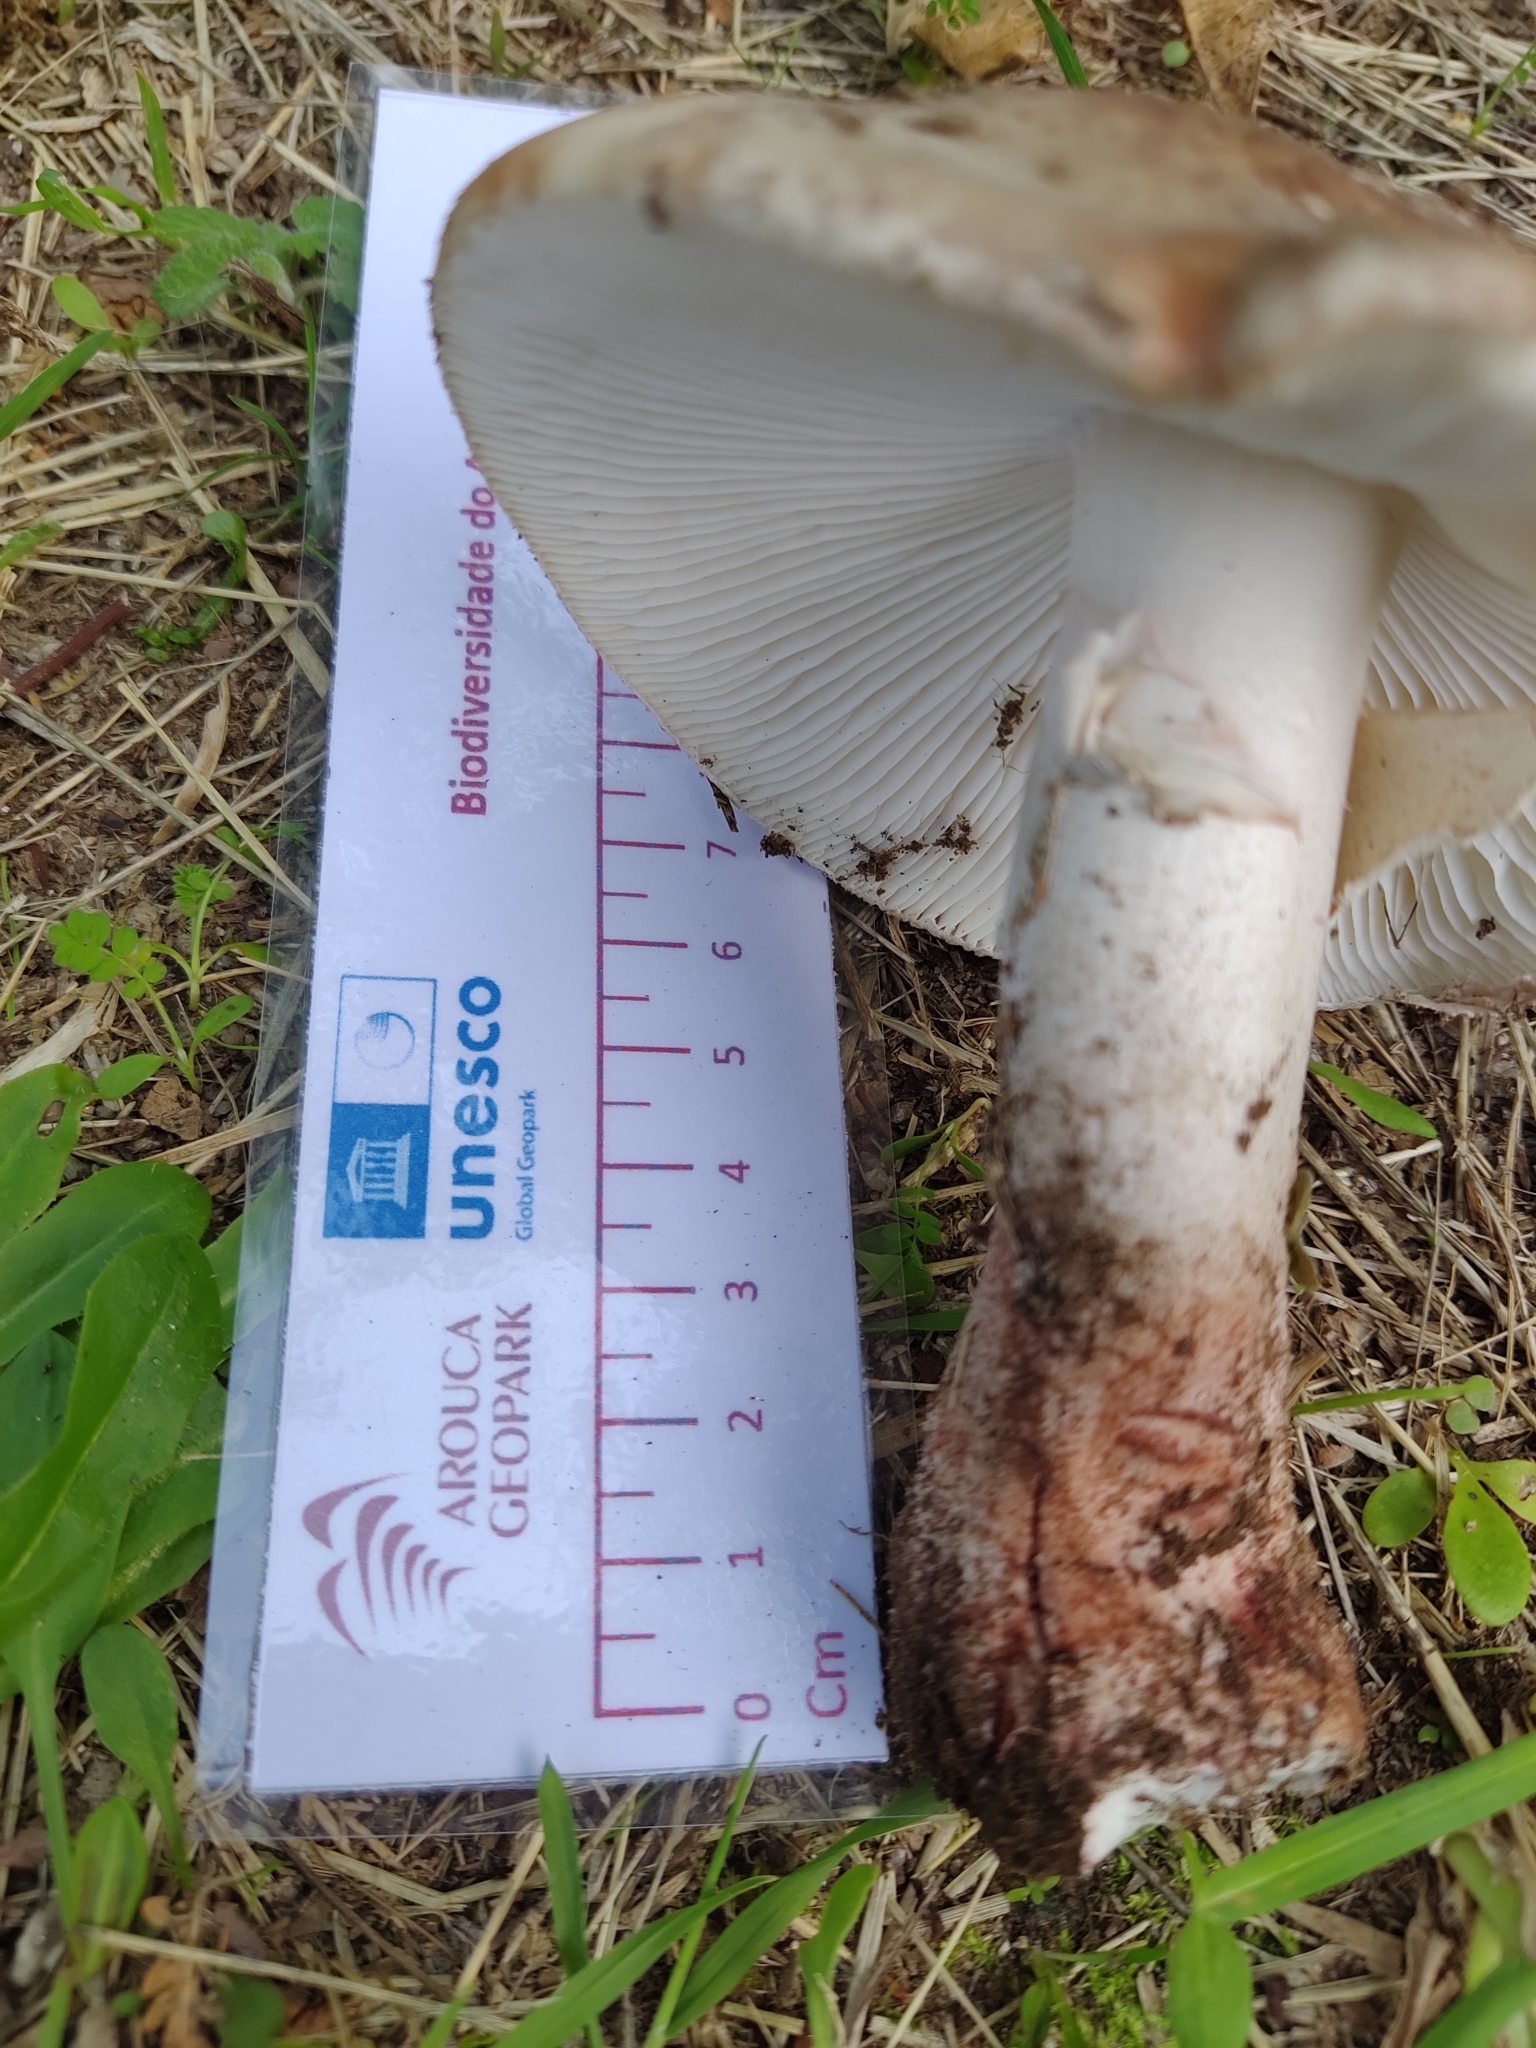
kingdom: Fungi
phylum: Basidiomycota
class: Agaricomycetes
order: Agaricales
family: Amanitaceae
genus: Amanita
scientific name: Amanita rubescens
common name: Blusher
